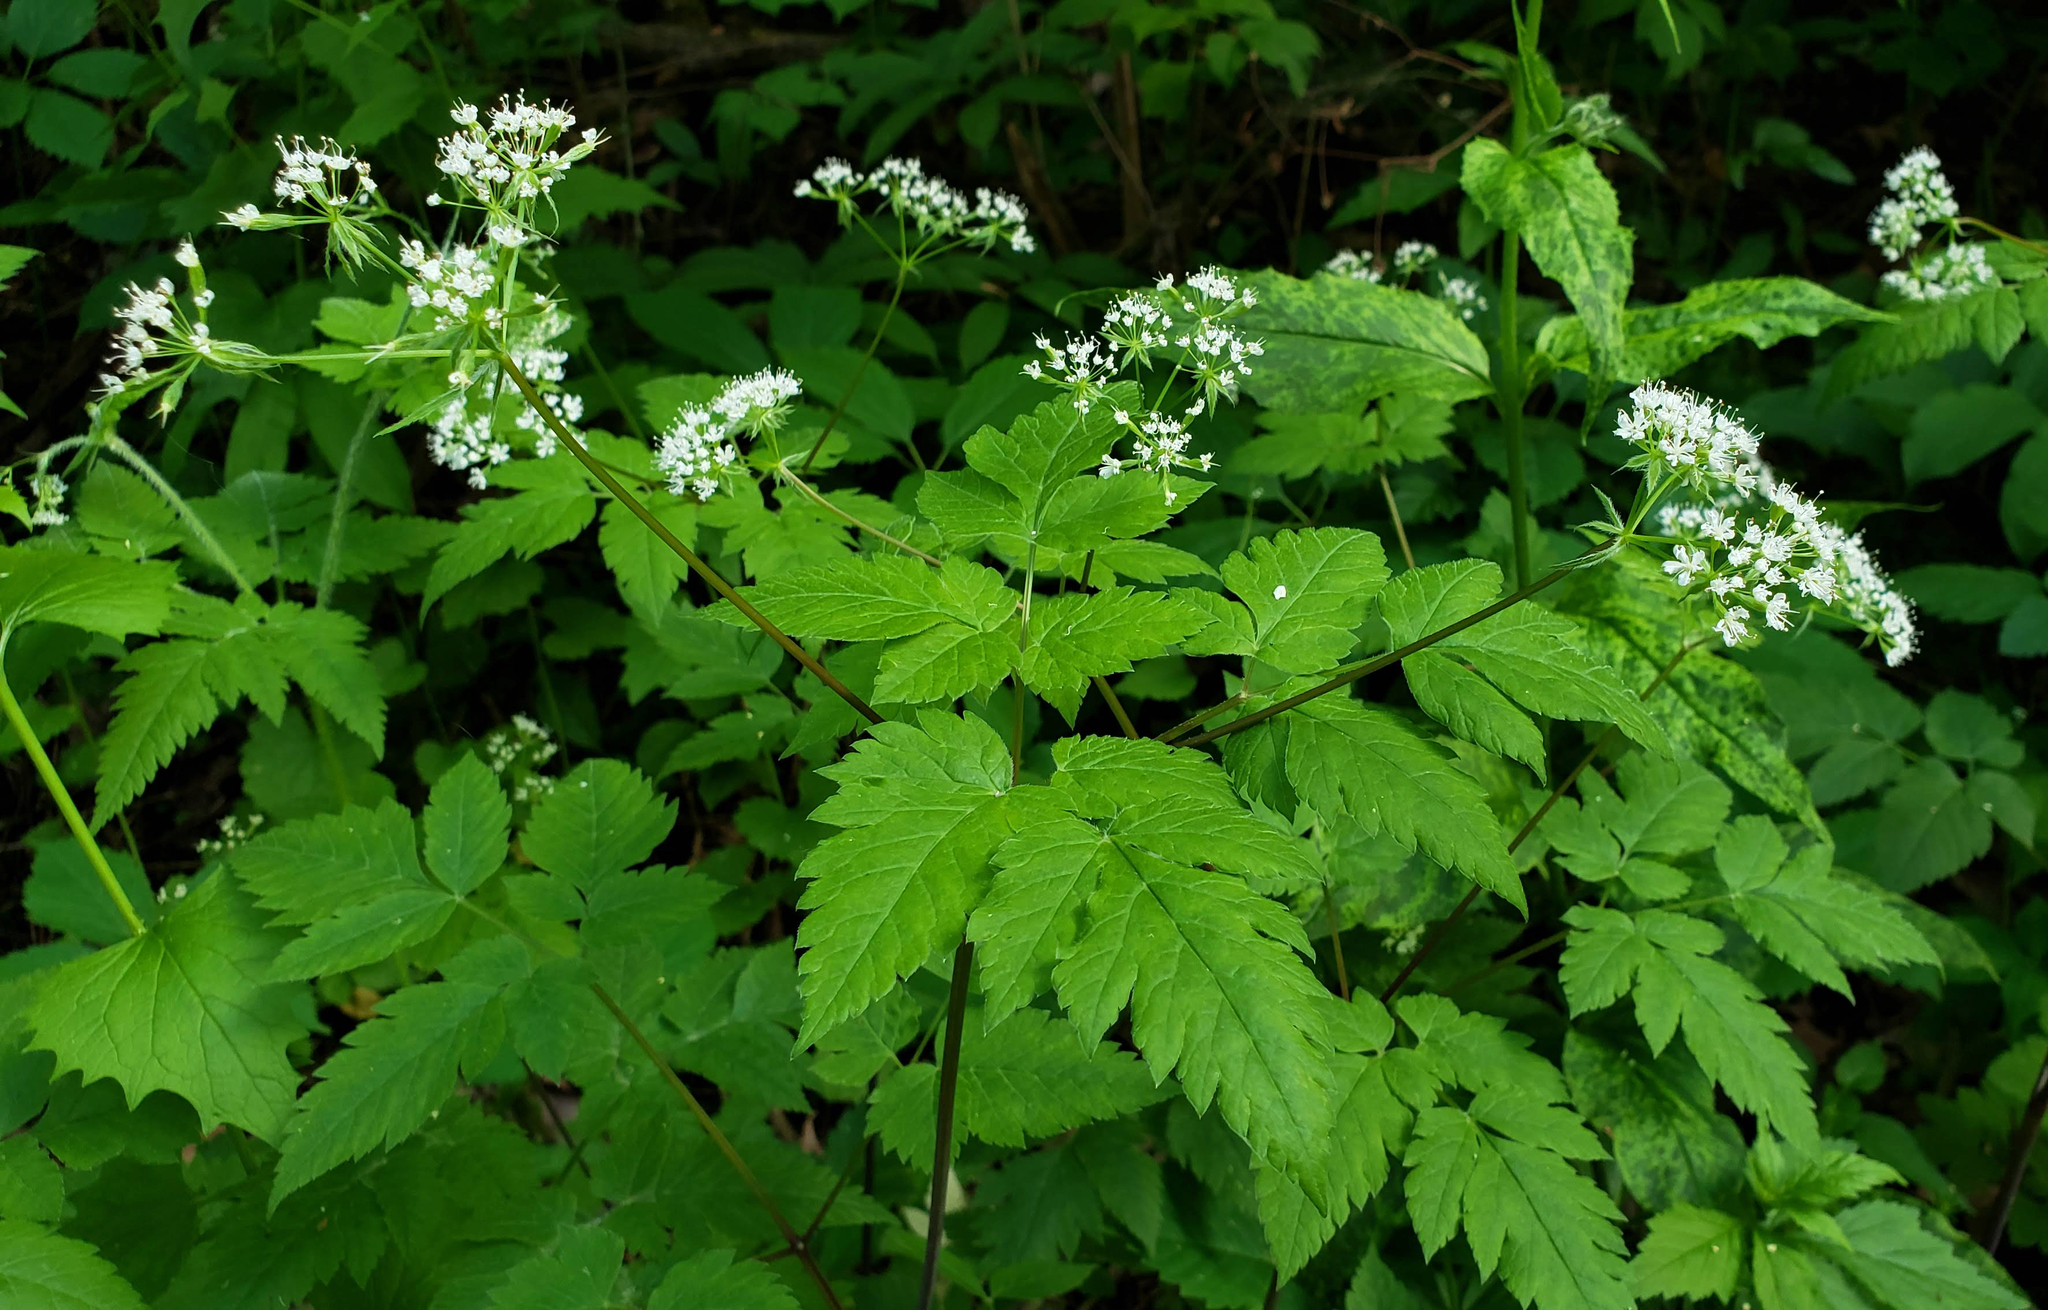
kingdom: Plantae
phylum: Tracheophyta
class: Magnoliopsida
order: Apiales
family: Apiaceae
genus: Osmorhiza
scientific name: Osmorhiza longistylis
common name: Smooth sweet cicely
